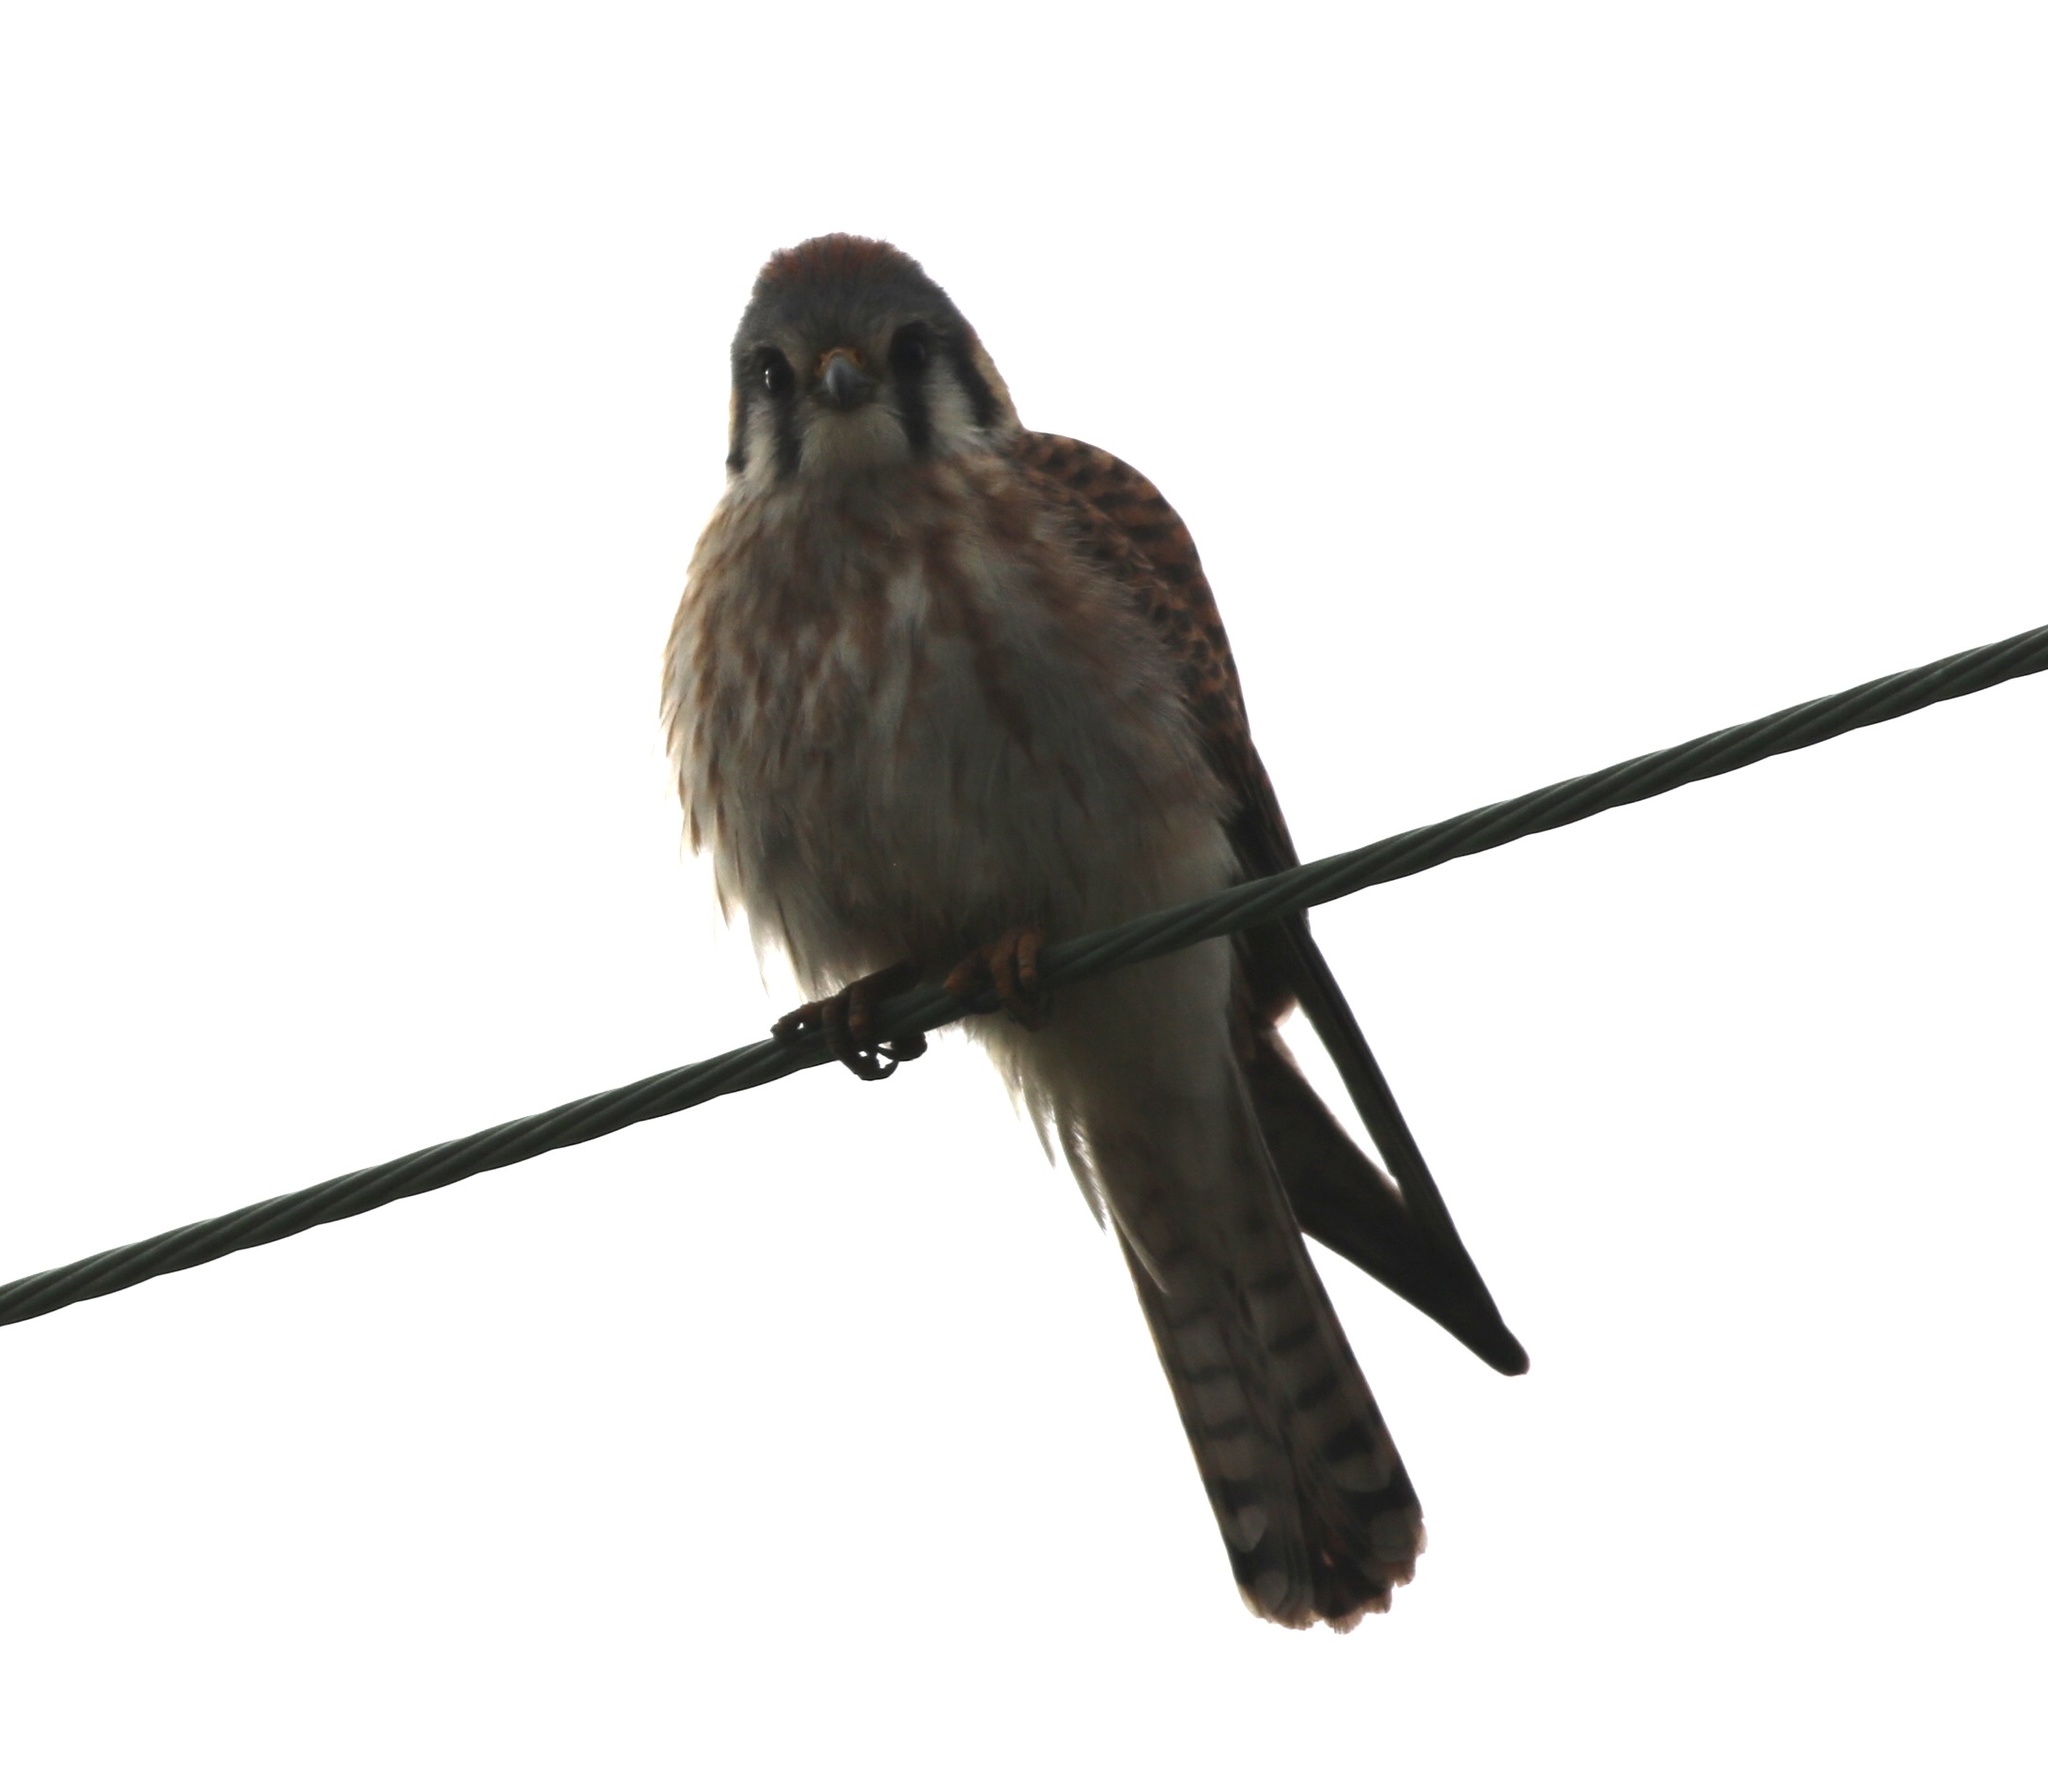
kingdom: Animalia
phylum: Chordata
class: Aves
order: Falconiformes
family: Falconidae
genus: Falco
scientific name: Falco sparverius
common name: American kestrel
